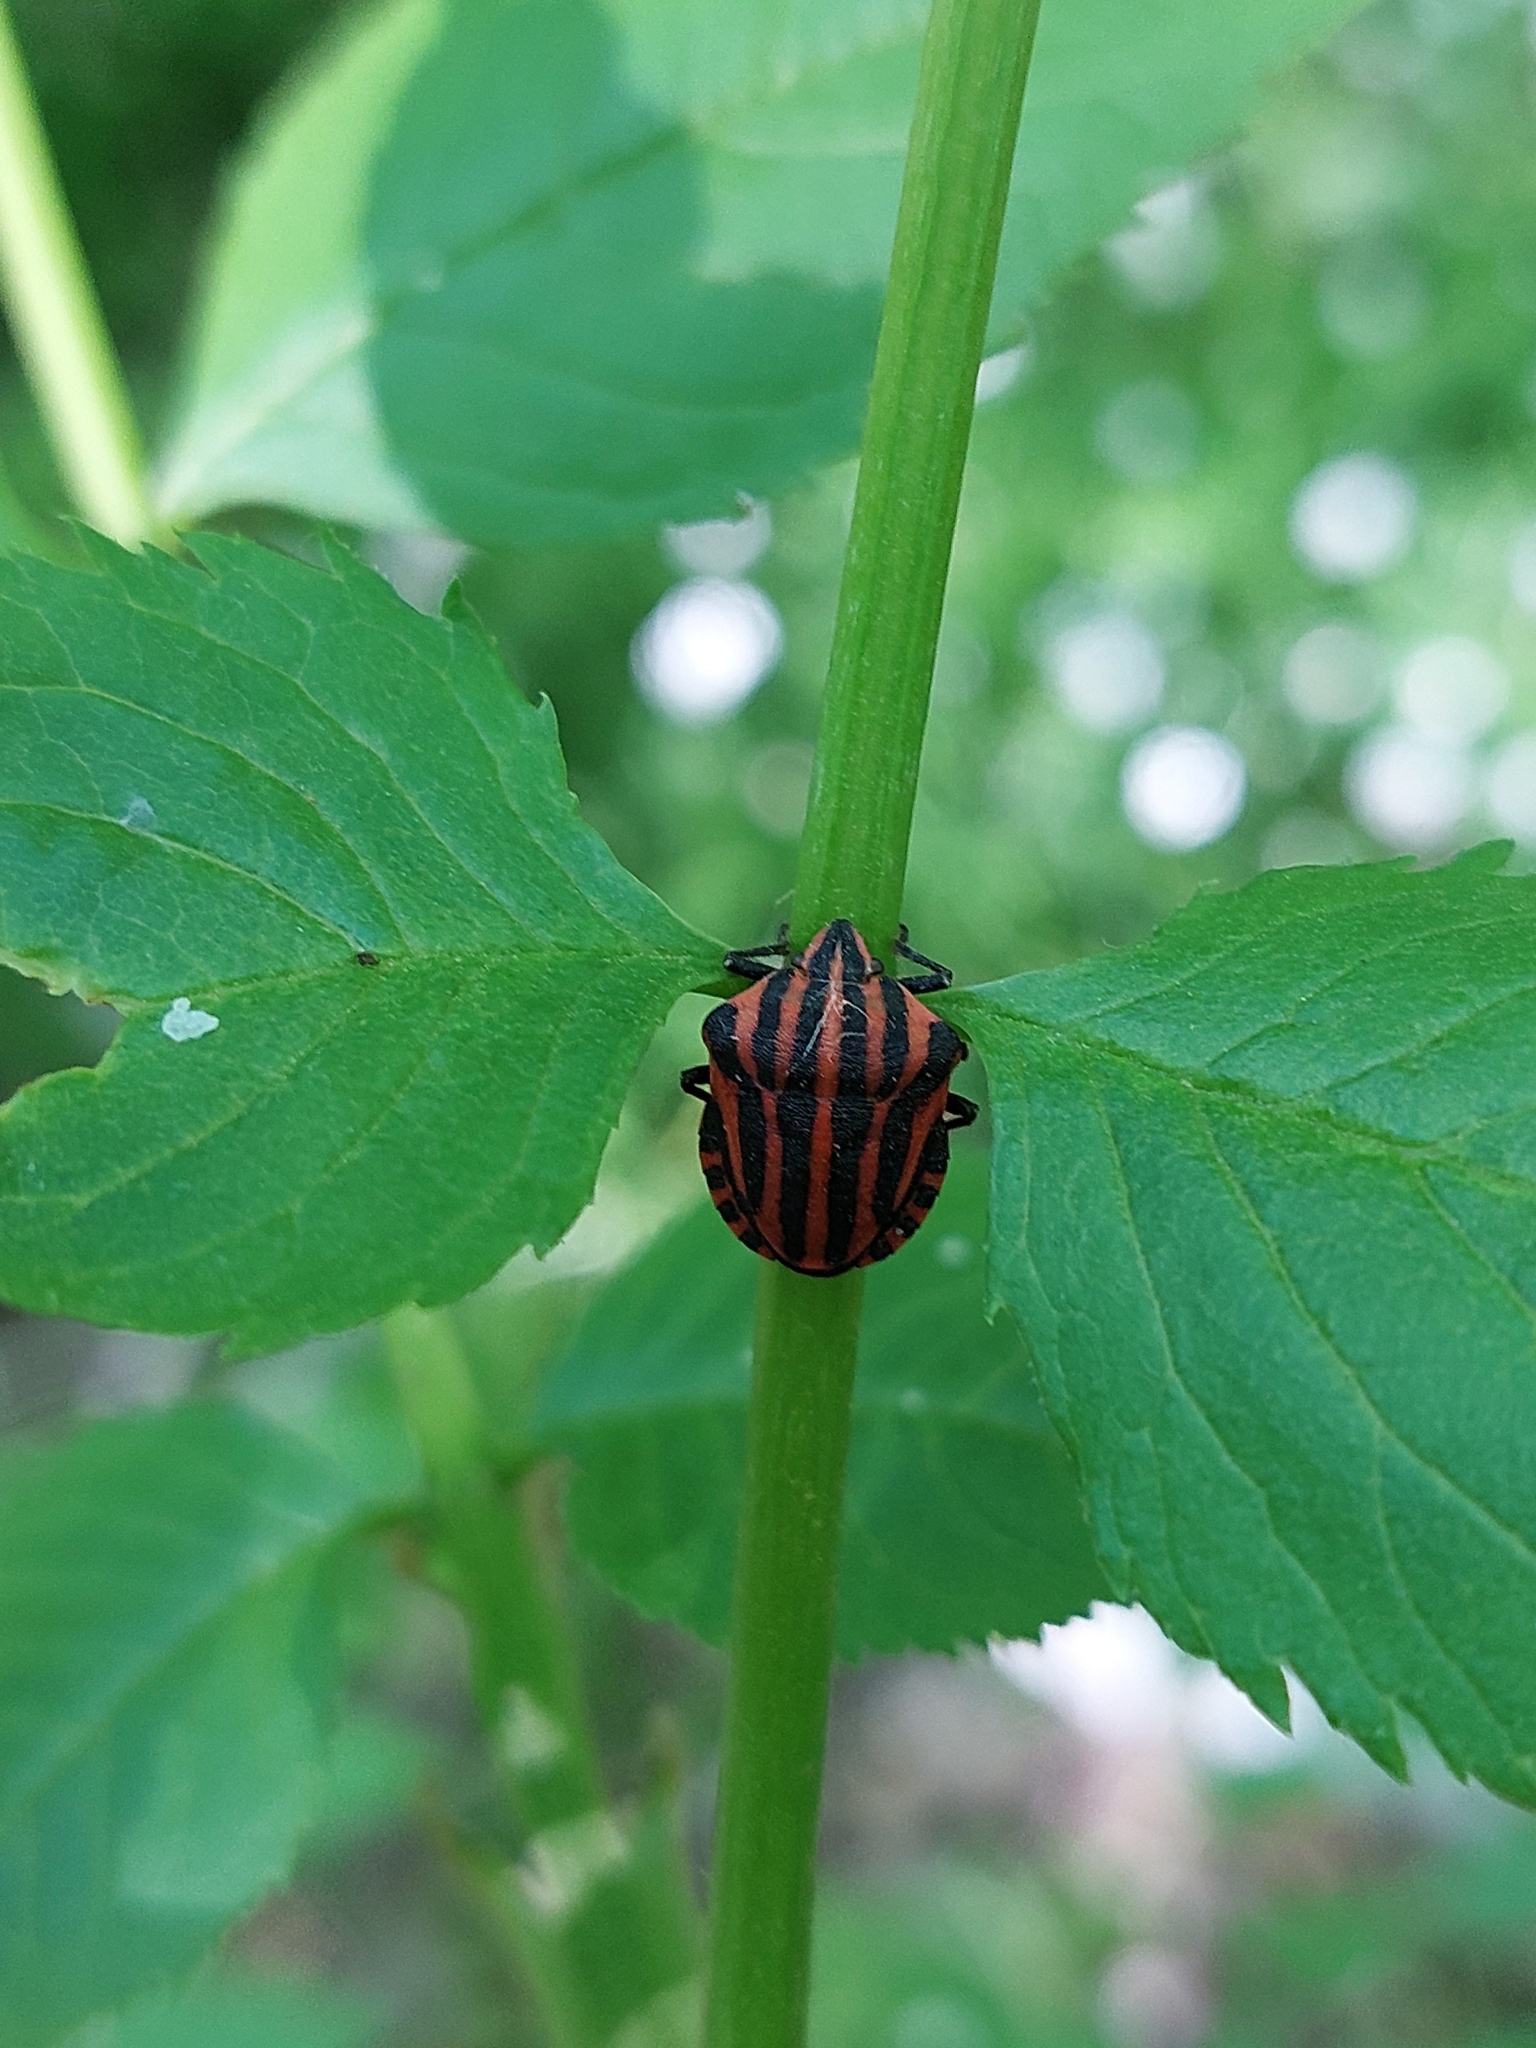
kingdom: Animalia
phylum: Arthropoda
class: Insecta
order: Hemiptera
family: Pentatomidae
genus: Graphosoma
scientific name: Graphosoma italicum
